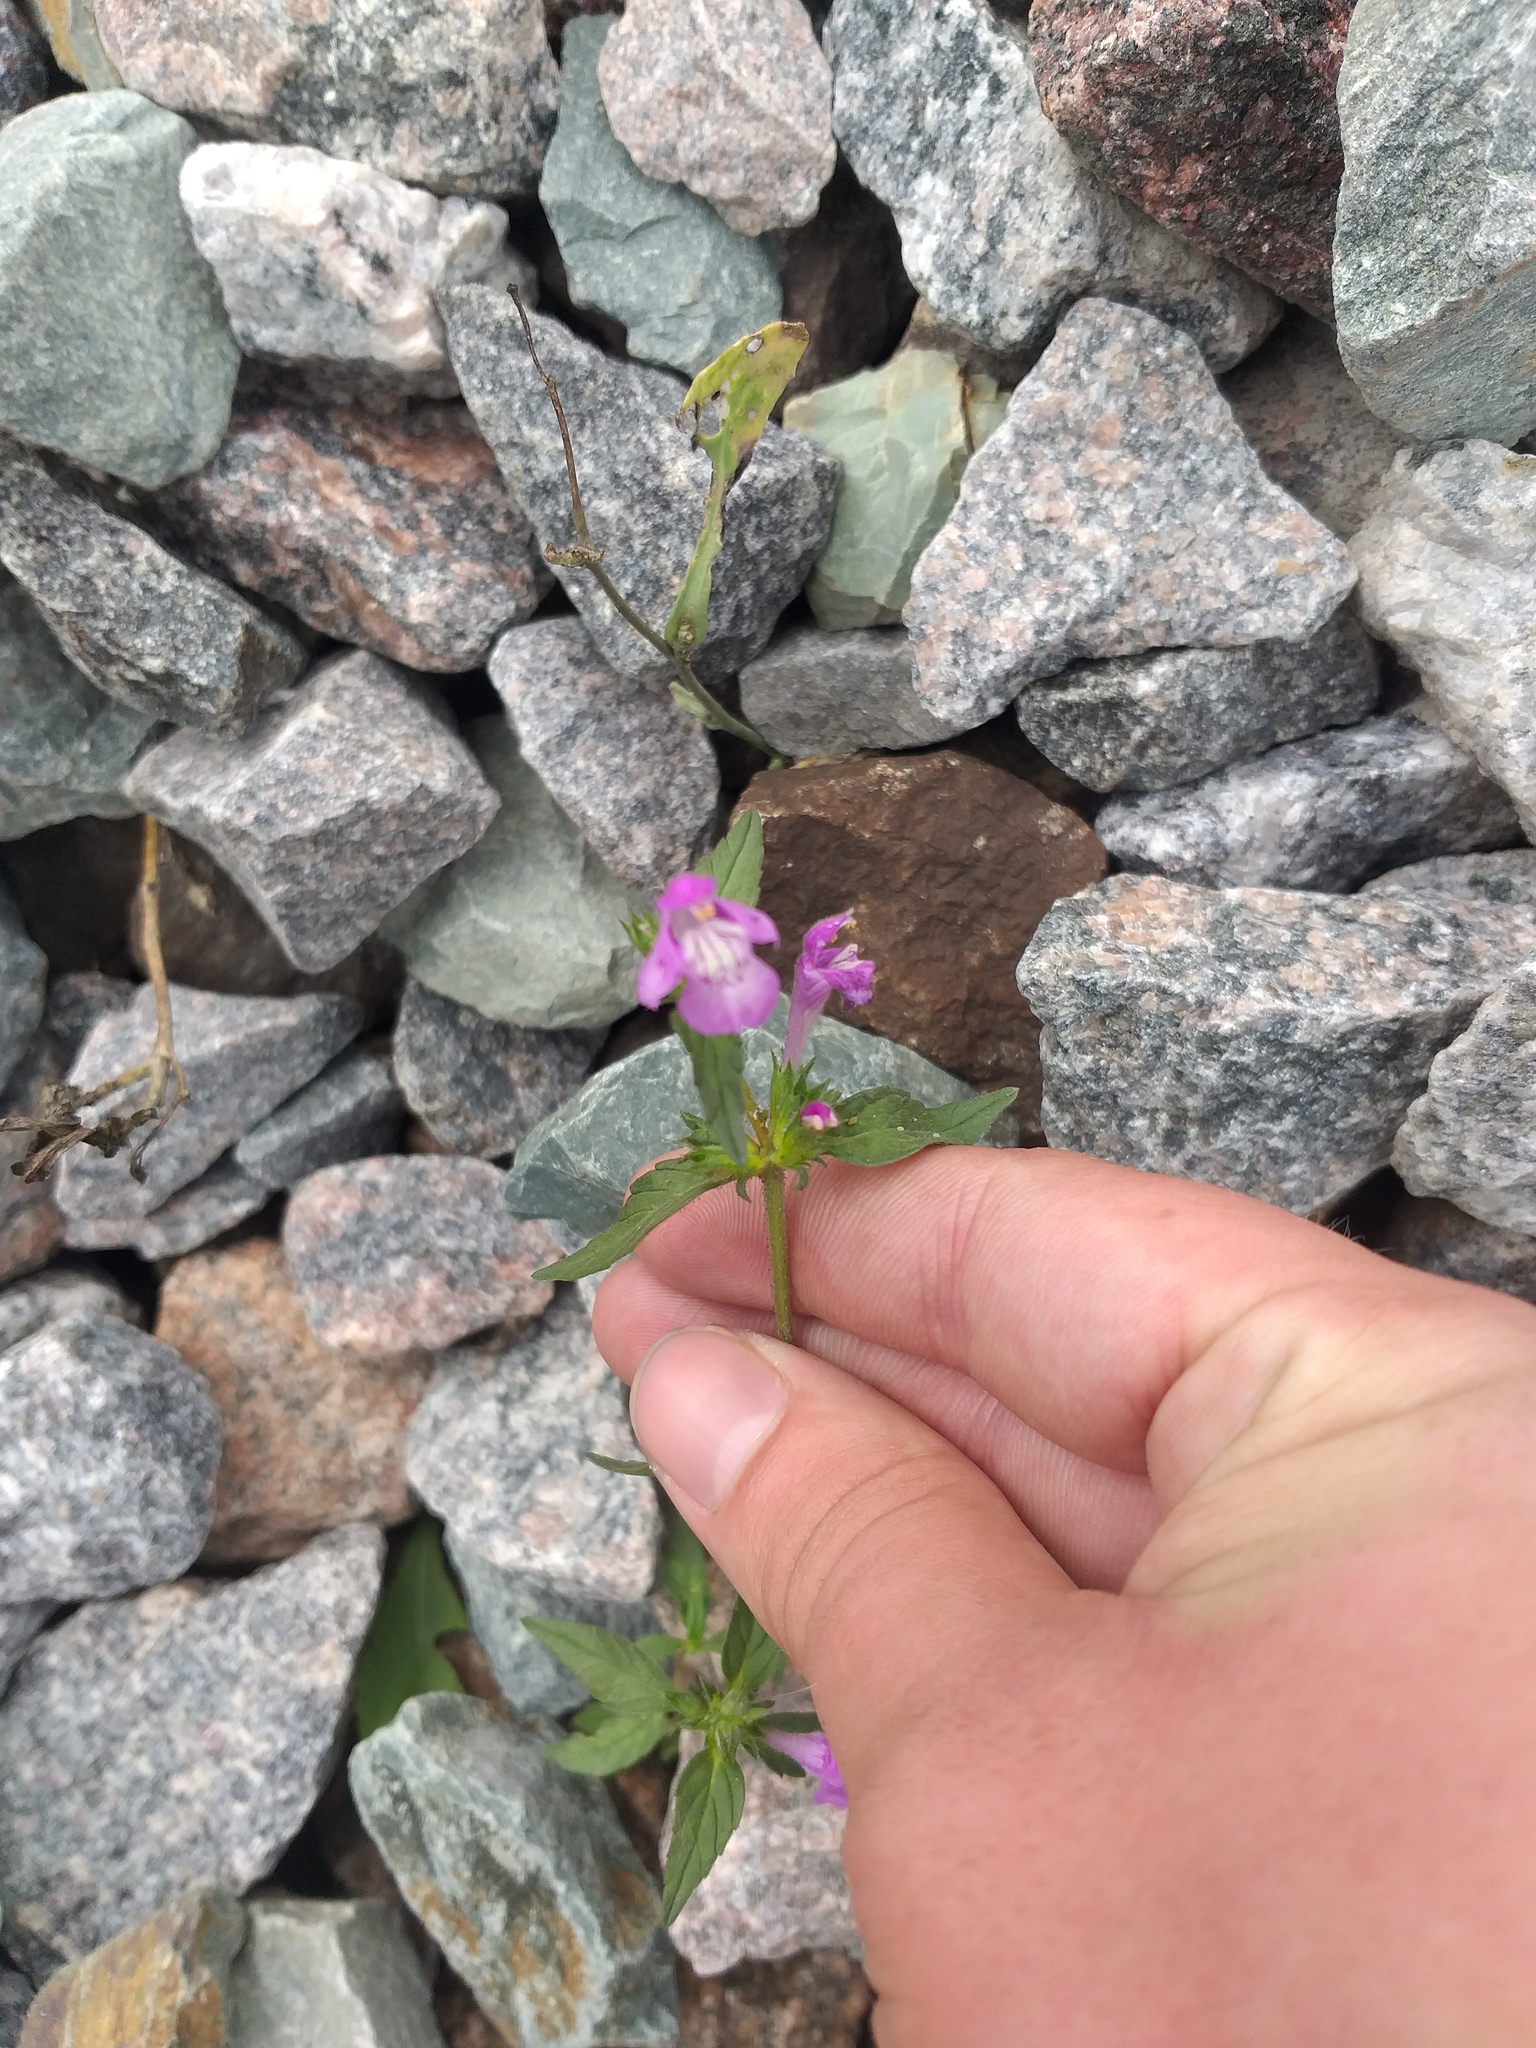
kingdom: Plantae
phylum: Tracheophyta
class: Magnoliopsida
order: Lamiales
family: Lamiaceae
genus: Galeopsis
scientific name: Galeopsis ladanum
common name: Broad-leaved hemp-nettle
